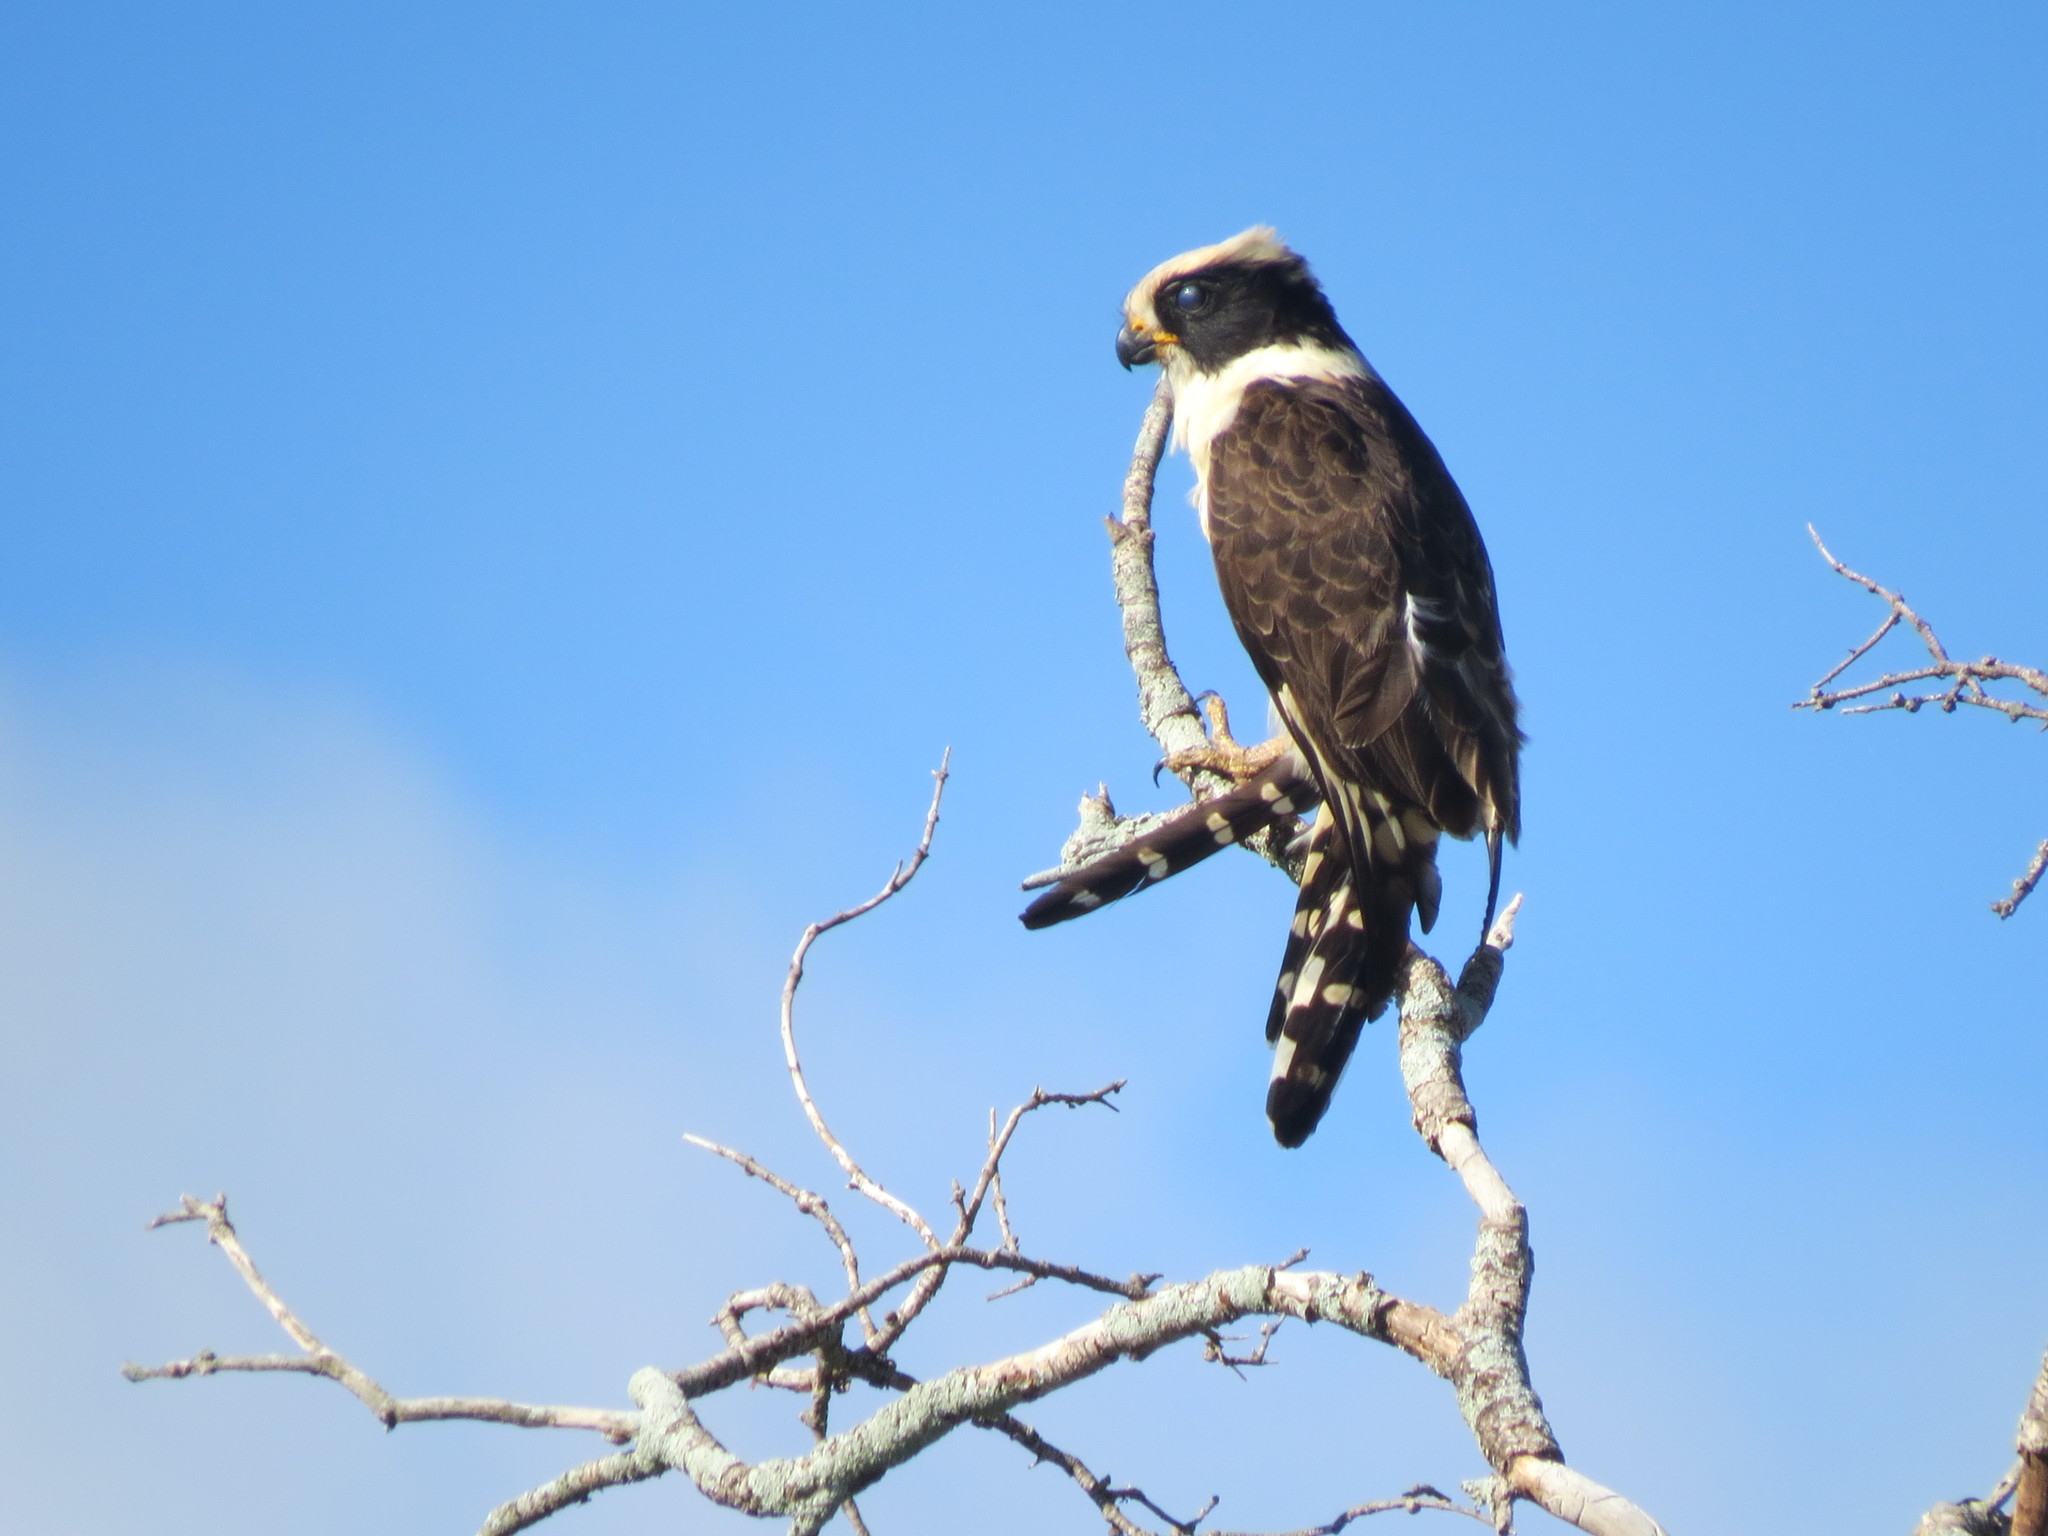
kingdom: Animalia
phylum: Chordata
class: Aves
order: Falconiformes
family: Falconidae
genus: Herpetotheres
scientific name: Herpetotheres cachinnans
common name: Laughing falcon
